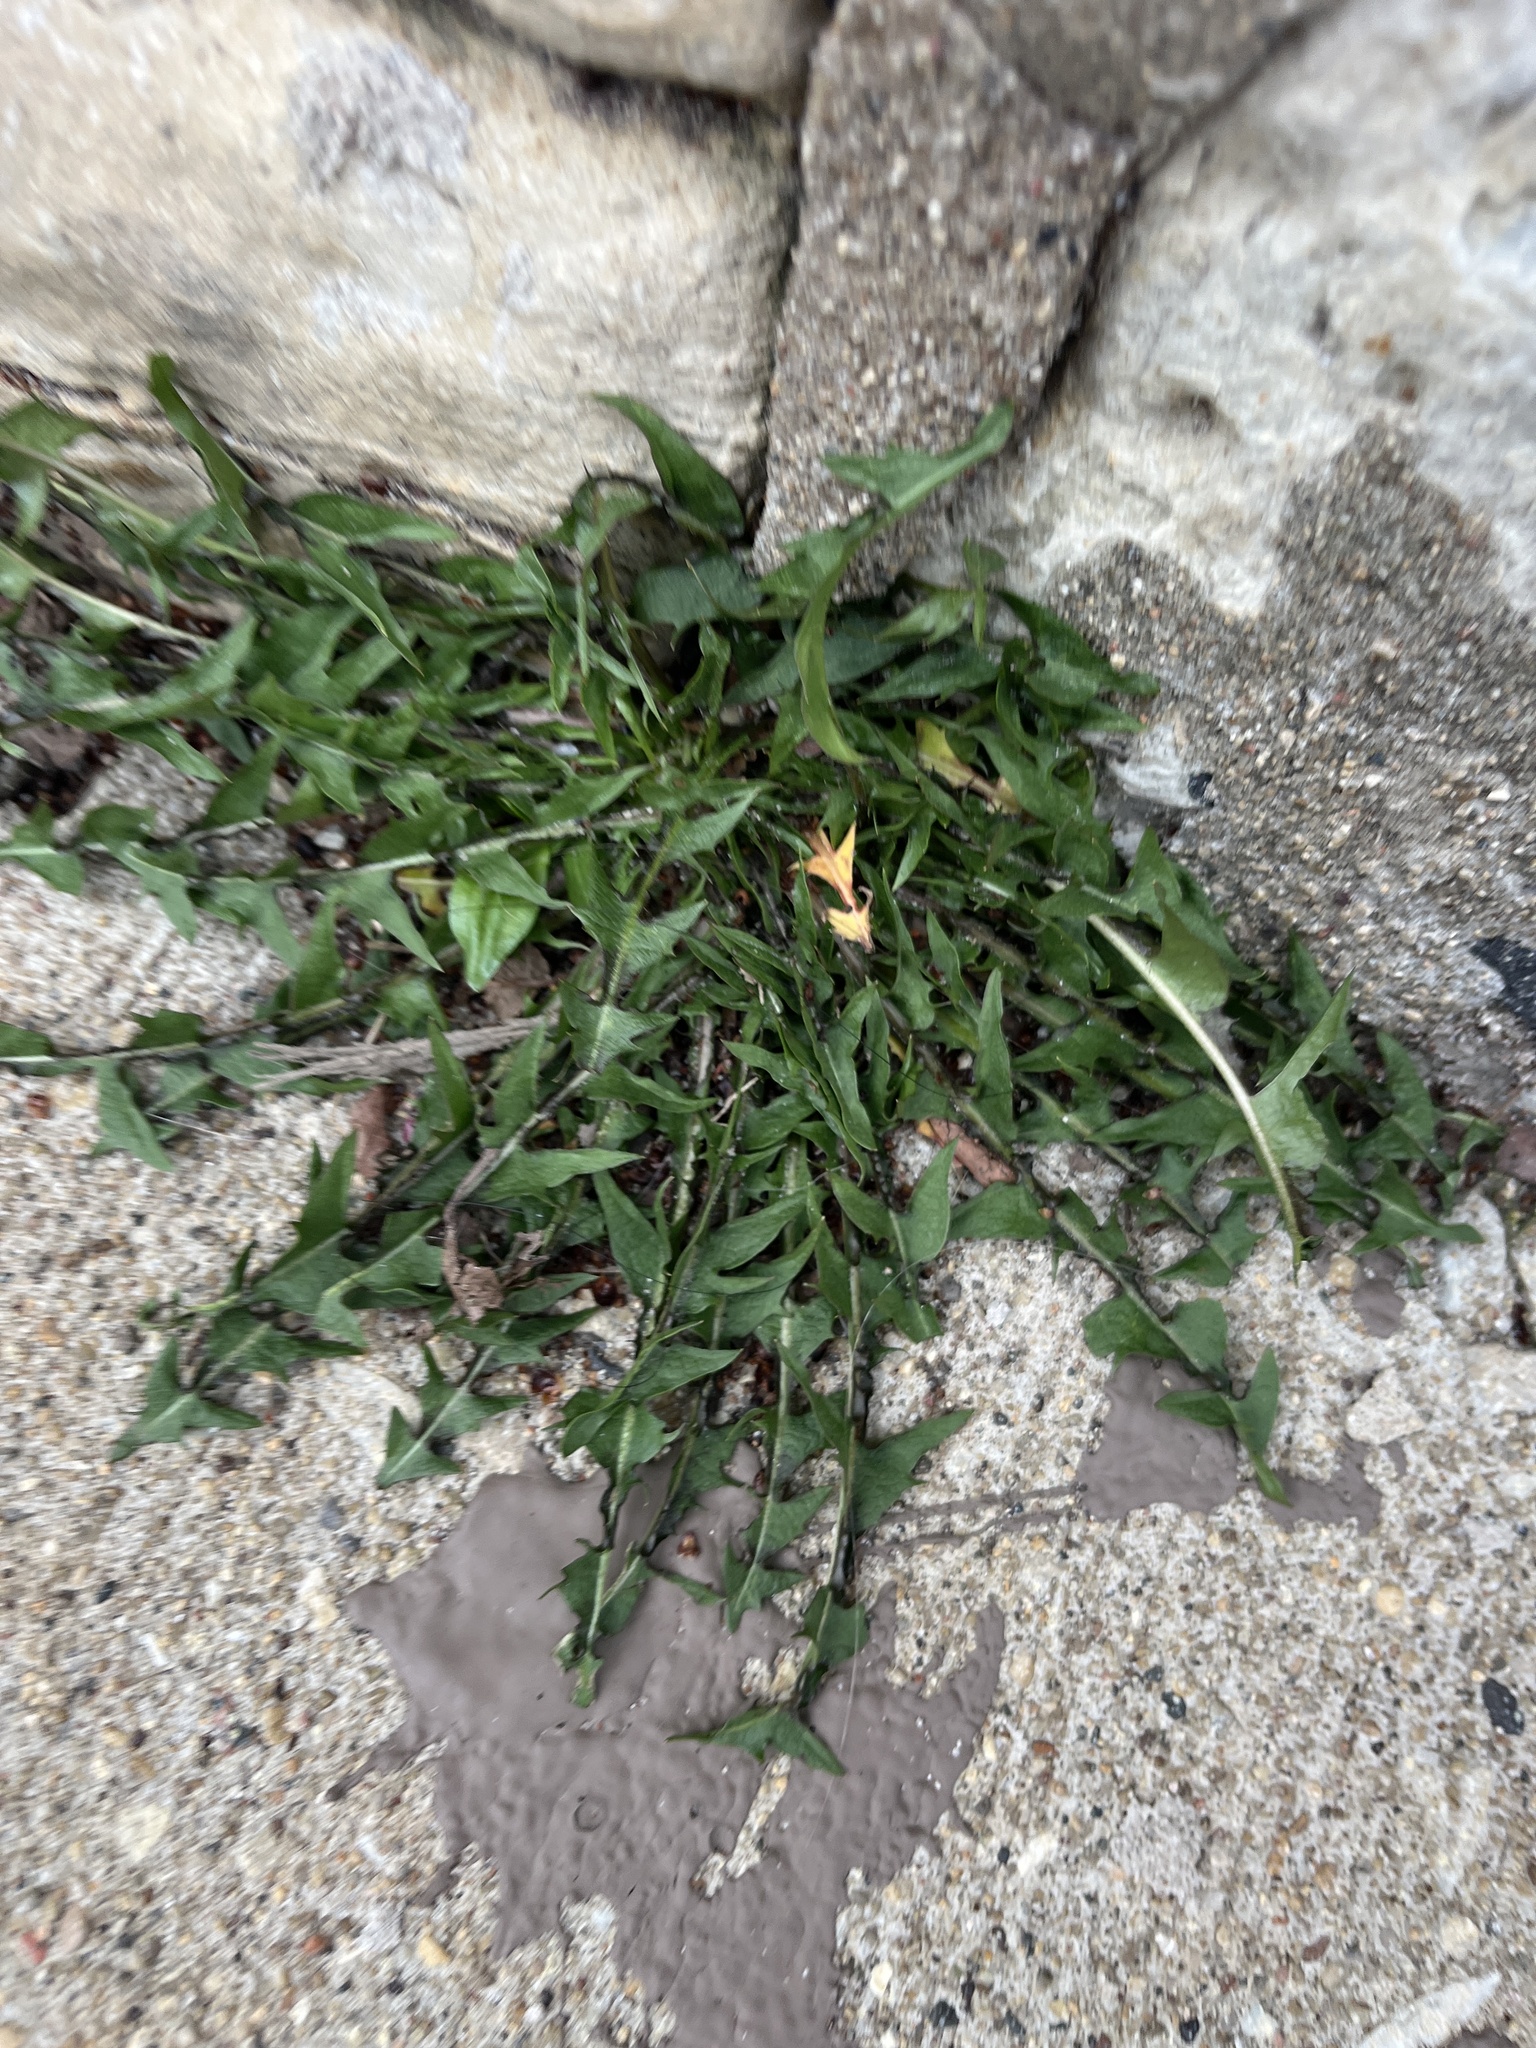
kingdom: Plantae
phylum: Tracheophyta
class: Magnoliopsida
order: Asterales
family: Asteraceae
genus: Taraxacum
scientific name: Taraxacum officinale
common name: Common dandelion
